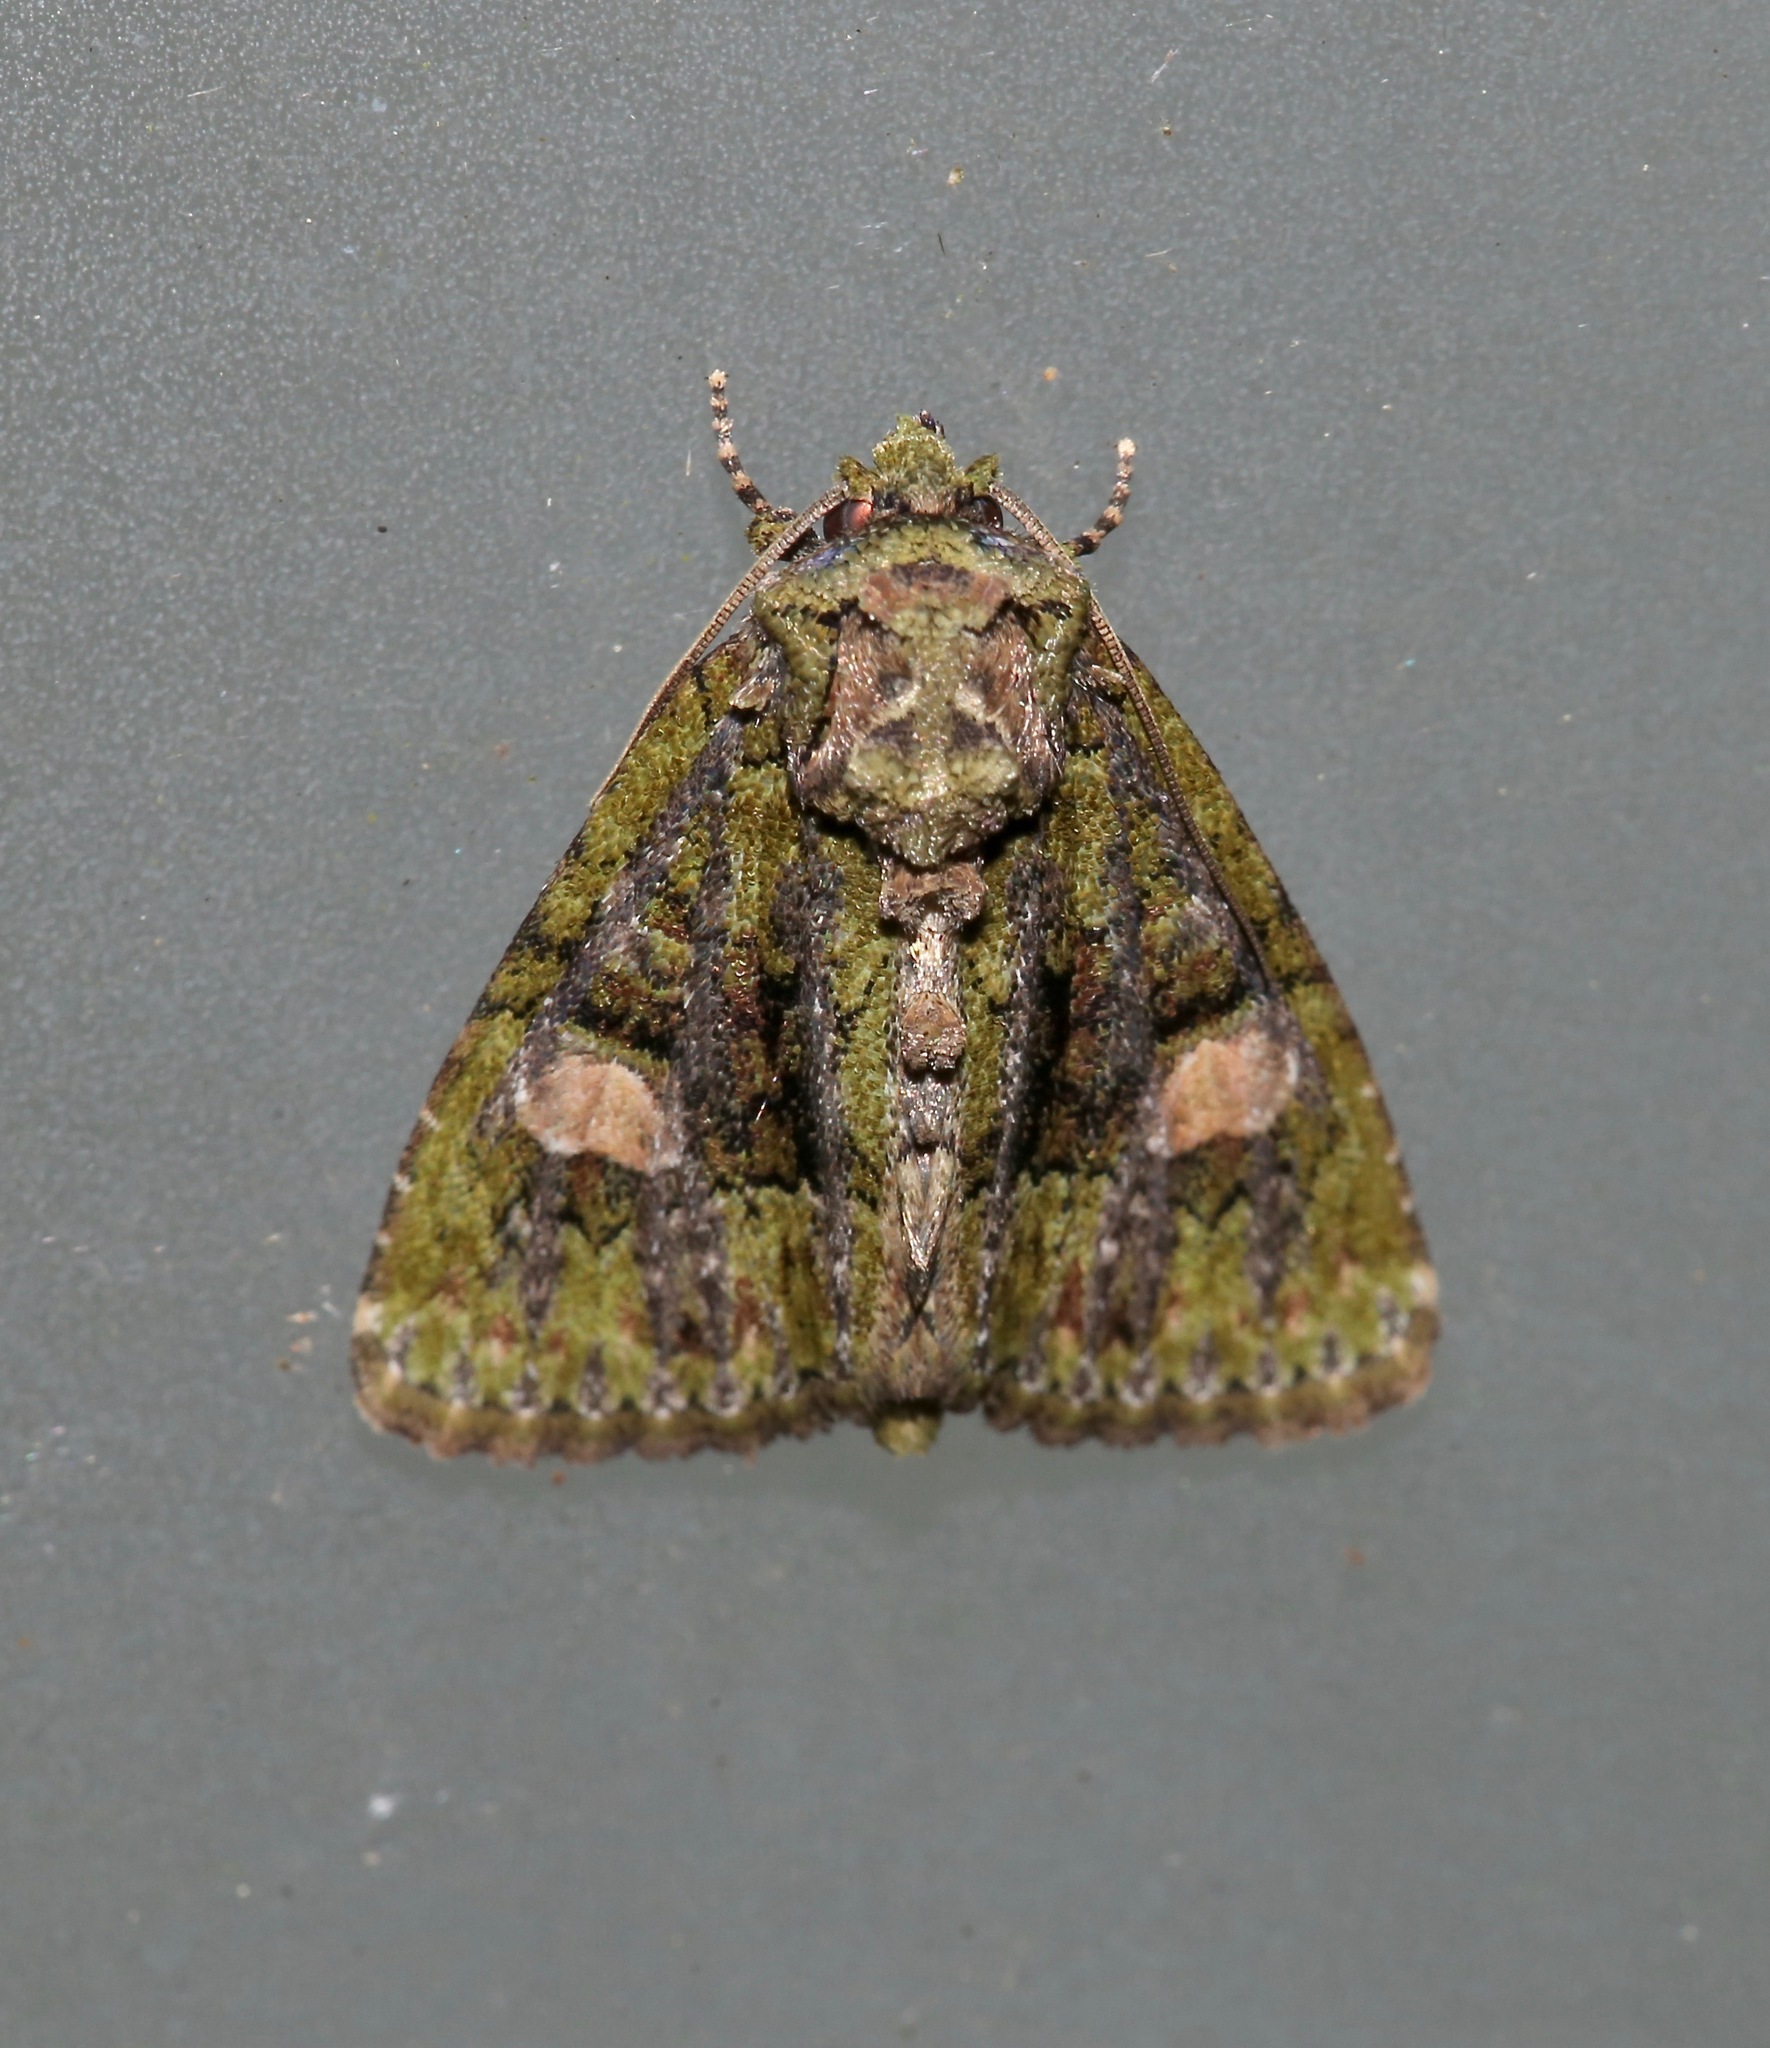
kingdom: Animalia
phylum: Arthropoda
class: Insecta
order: Lepidoptera
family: Noctuidae
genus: Phosphila
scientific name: Phosphila miselioides
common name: Spotted phosphila moth
